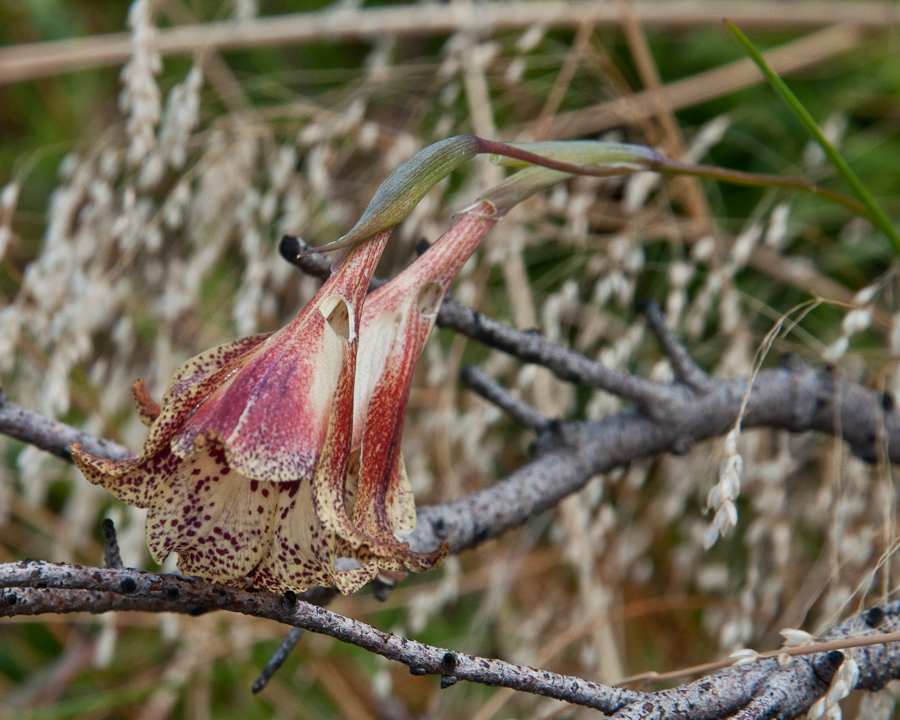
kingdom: Plantae
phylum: Tracheophyta
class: Liliopsida
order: Asparagales
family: Iridaceae
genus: Gladiolus
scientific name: Gladiolus maculatus
